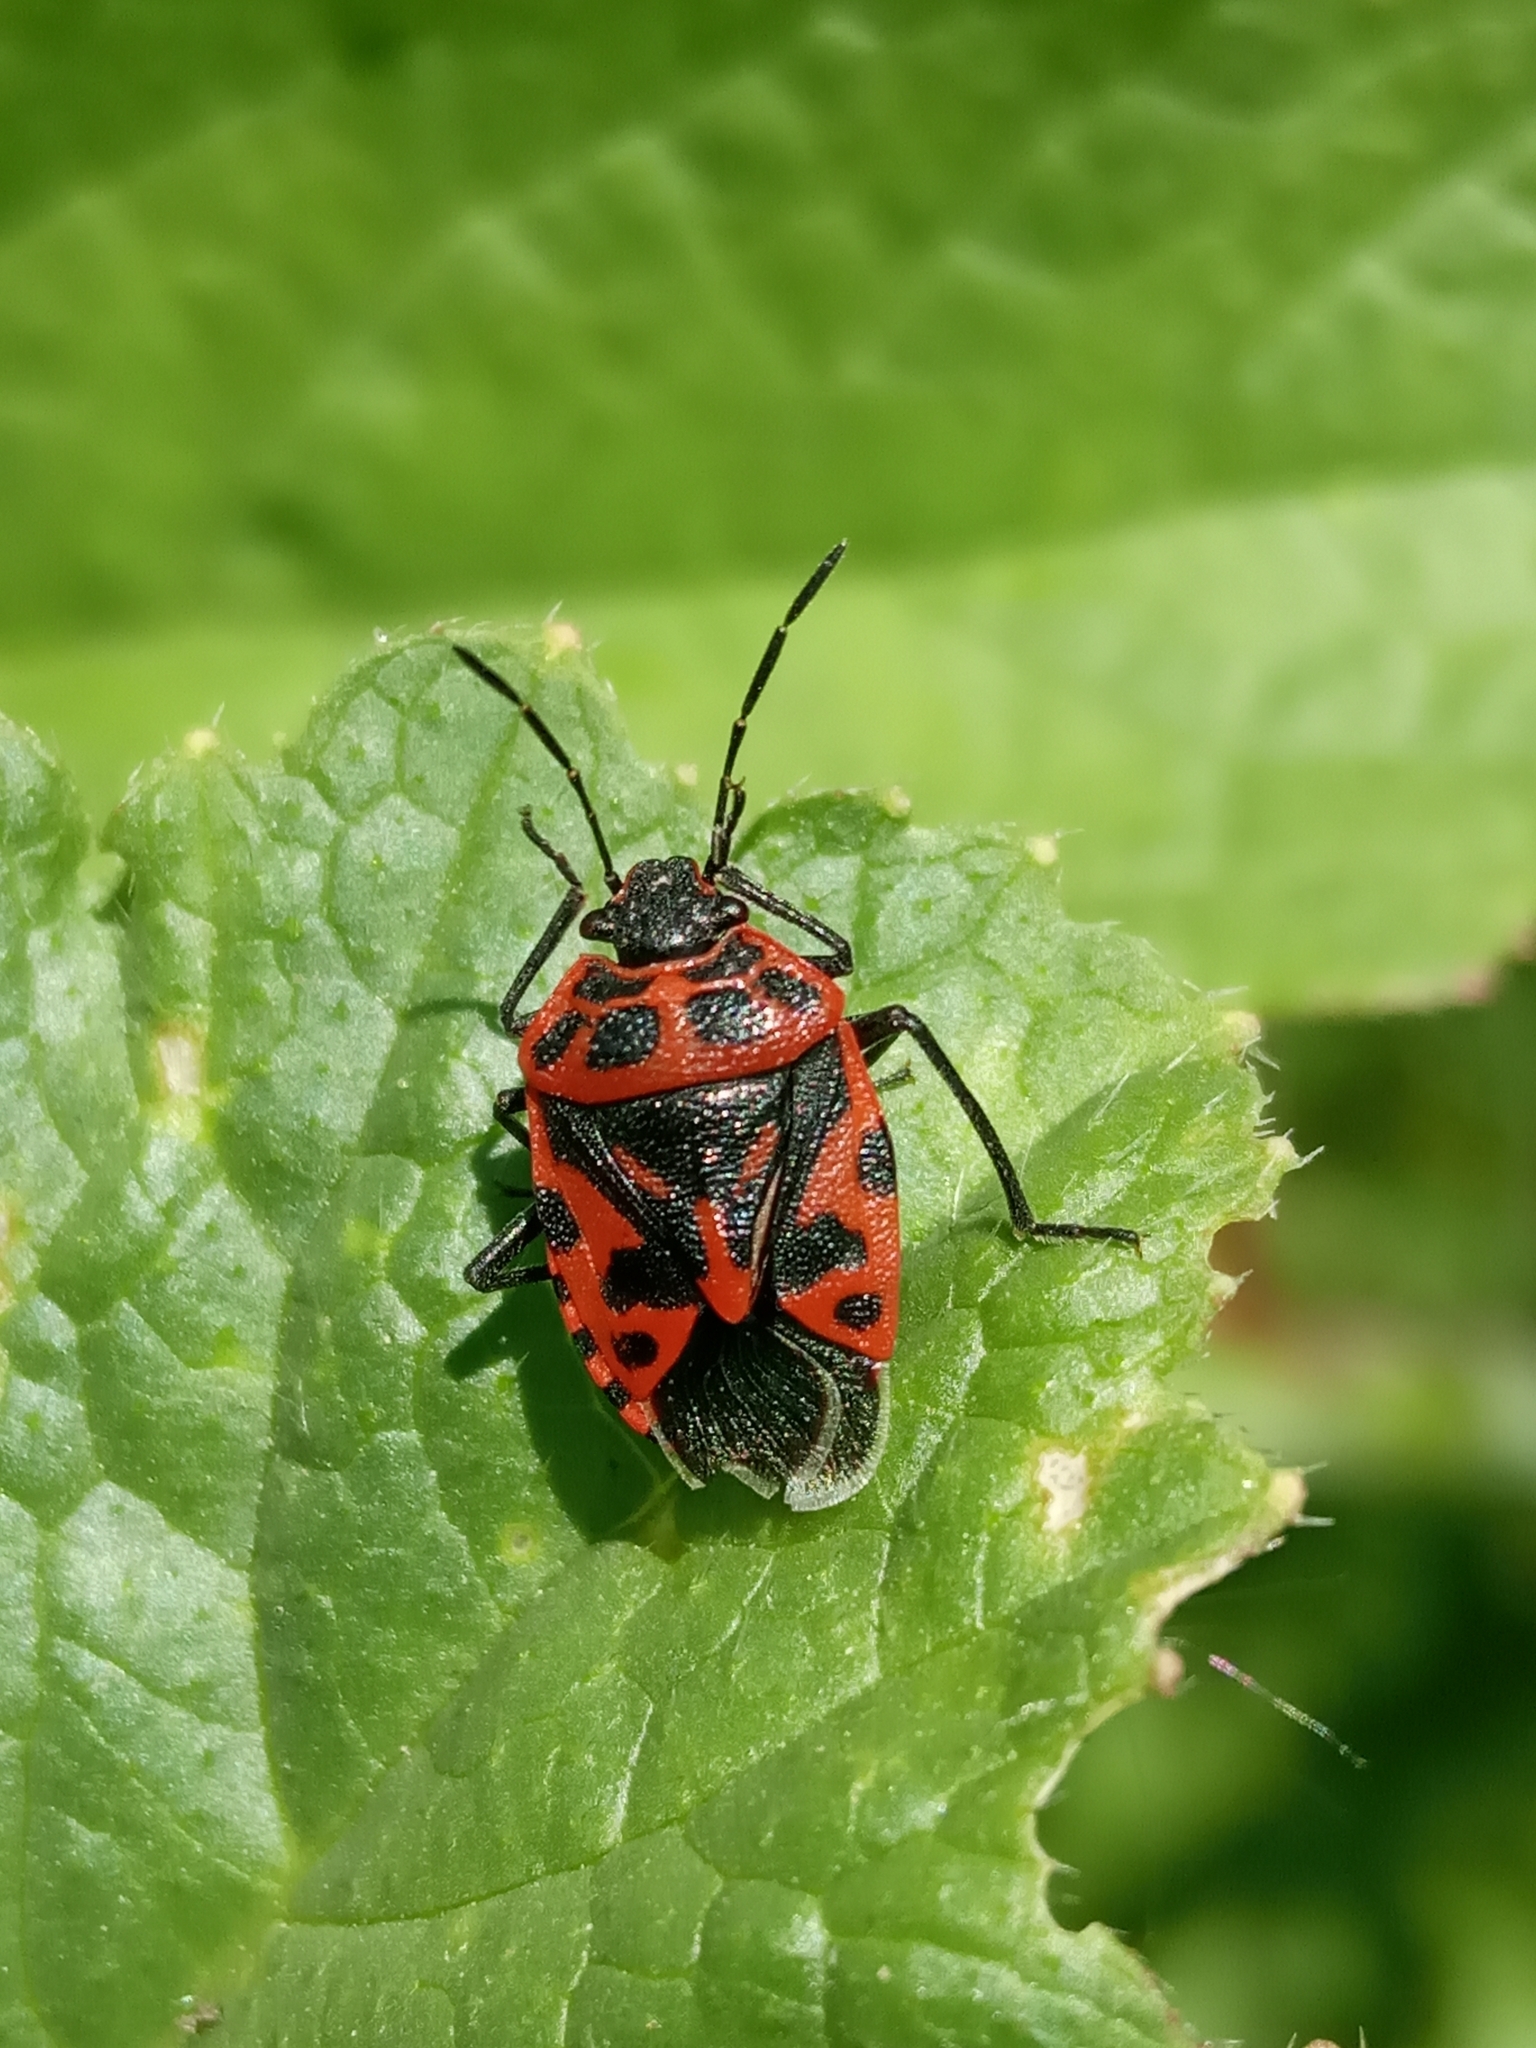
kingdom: Animalia
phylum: Arthropoda
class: Insecta
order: Hemiptera
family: Pentatomidae
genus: Eurydema
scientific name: Eurydema ventralis
